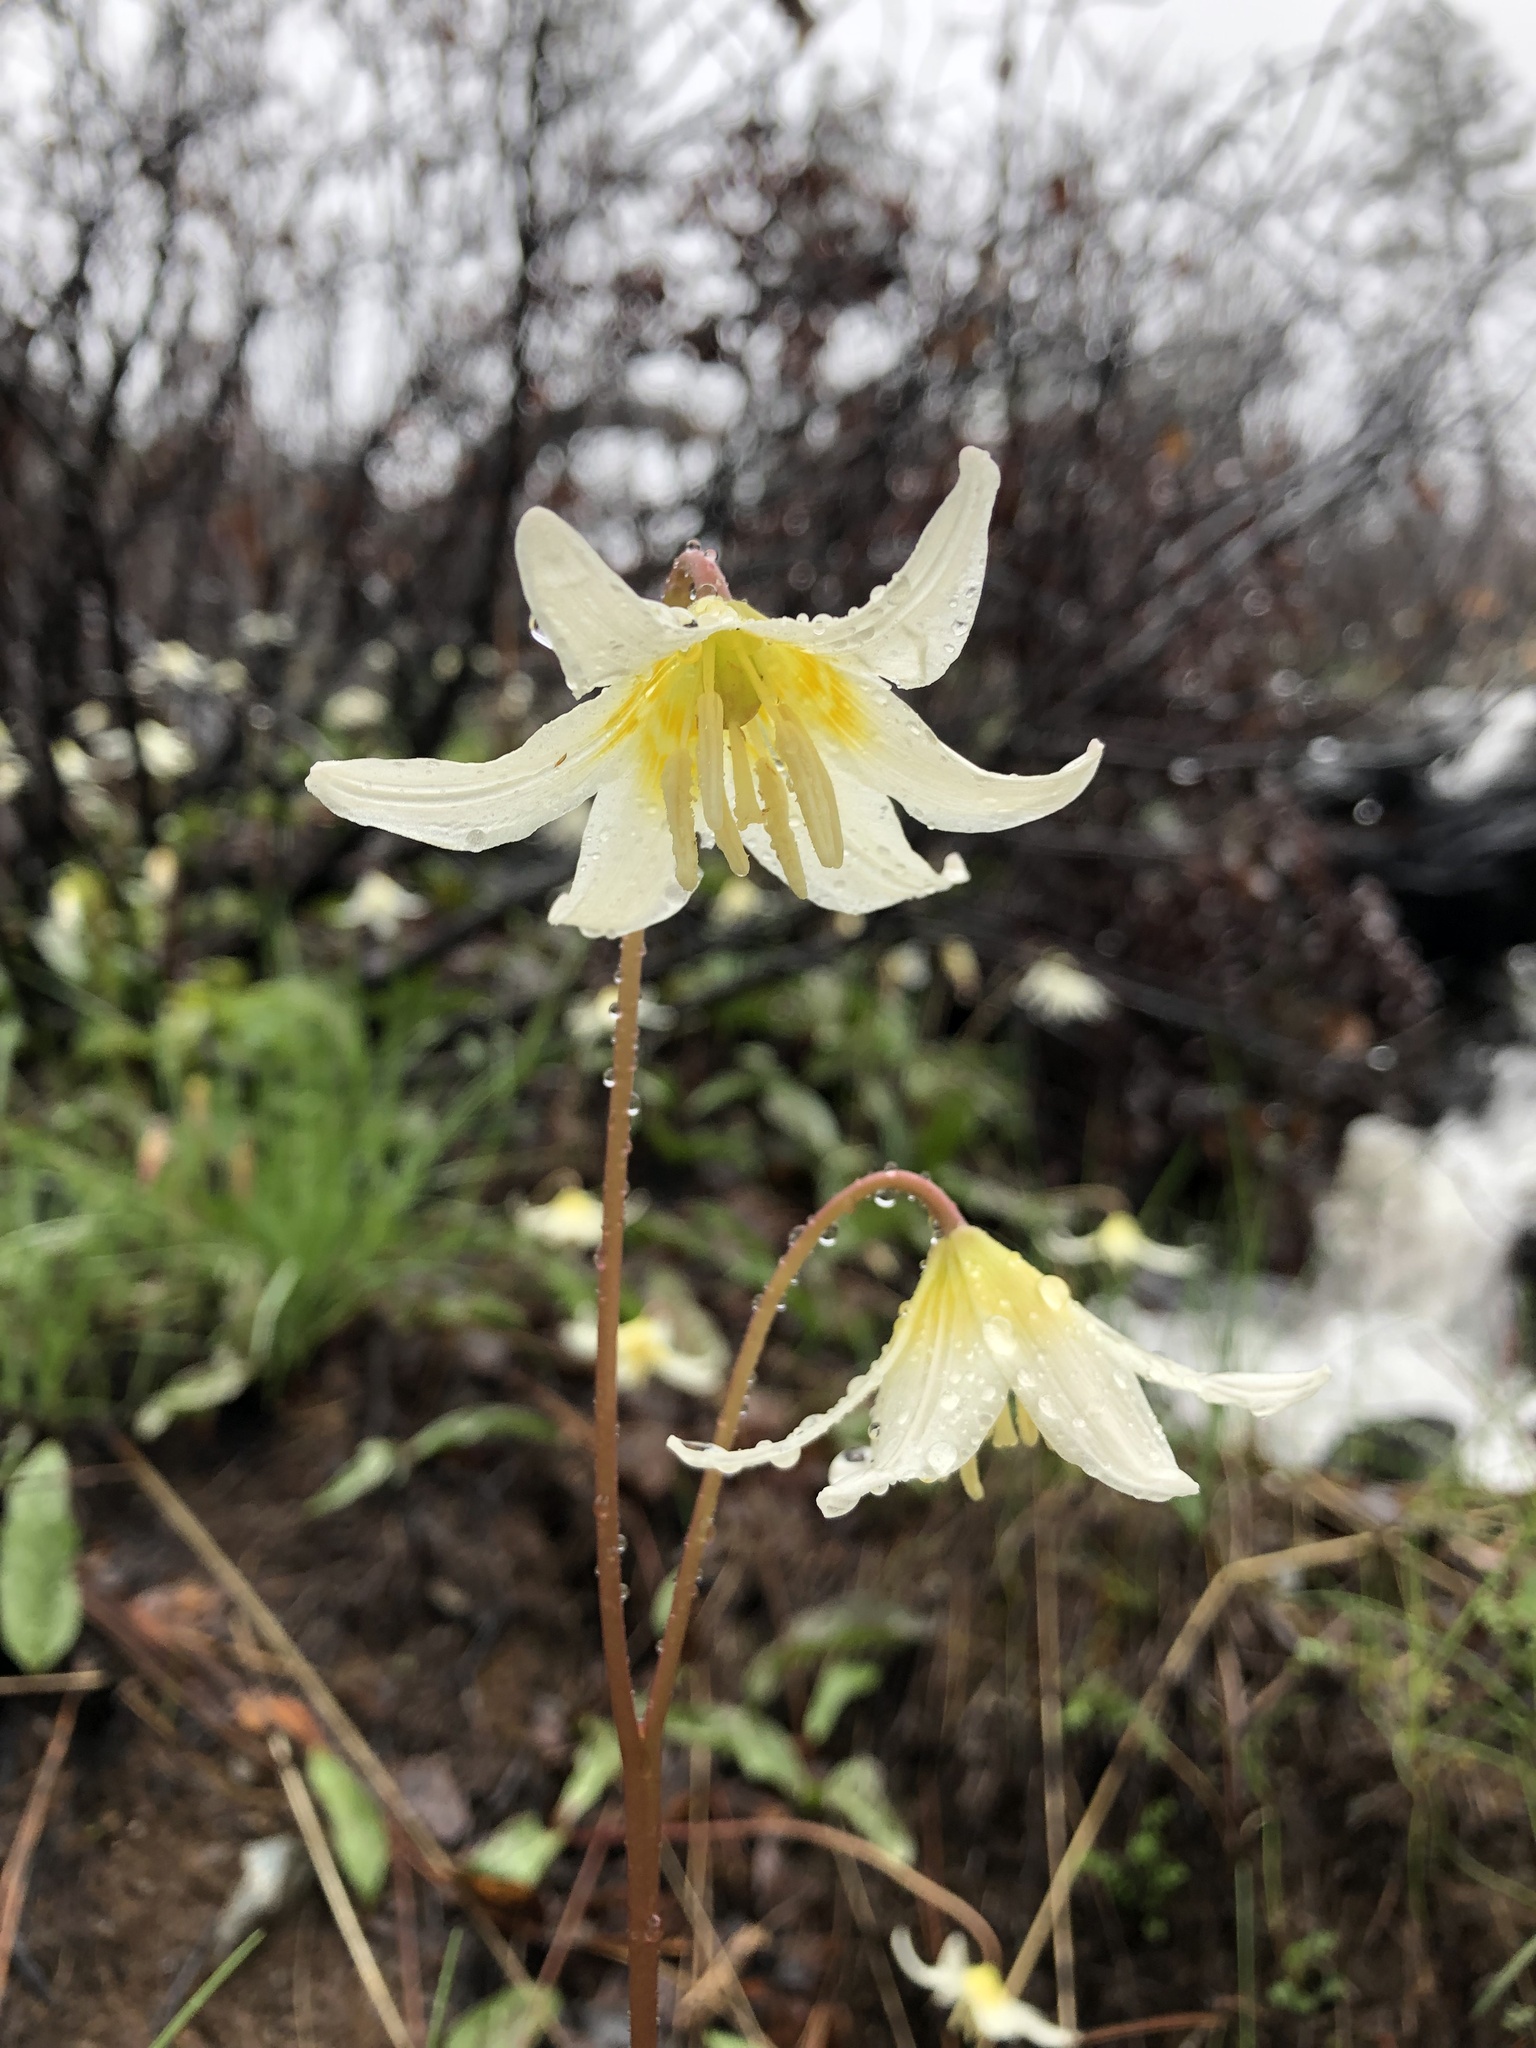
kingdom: Plantae
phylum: Tracheophyta
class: Liliopsida
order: Liliales
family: Liliaceae
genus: Erythronium
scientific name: Erythronium citrinum
